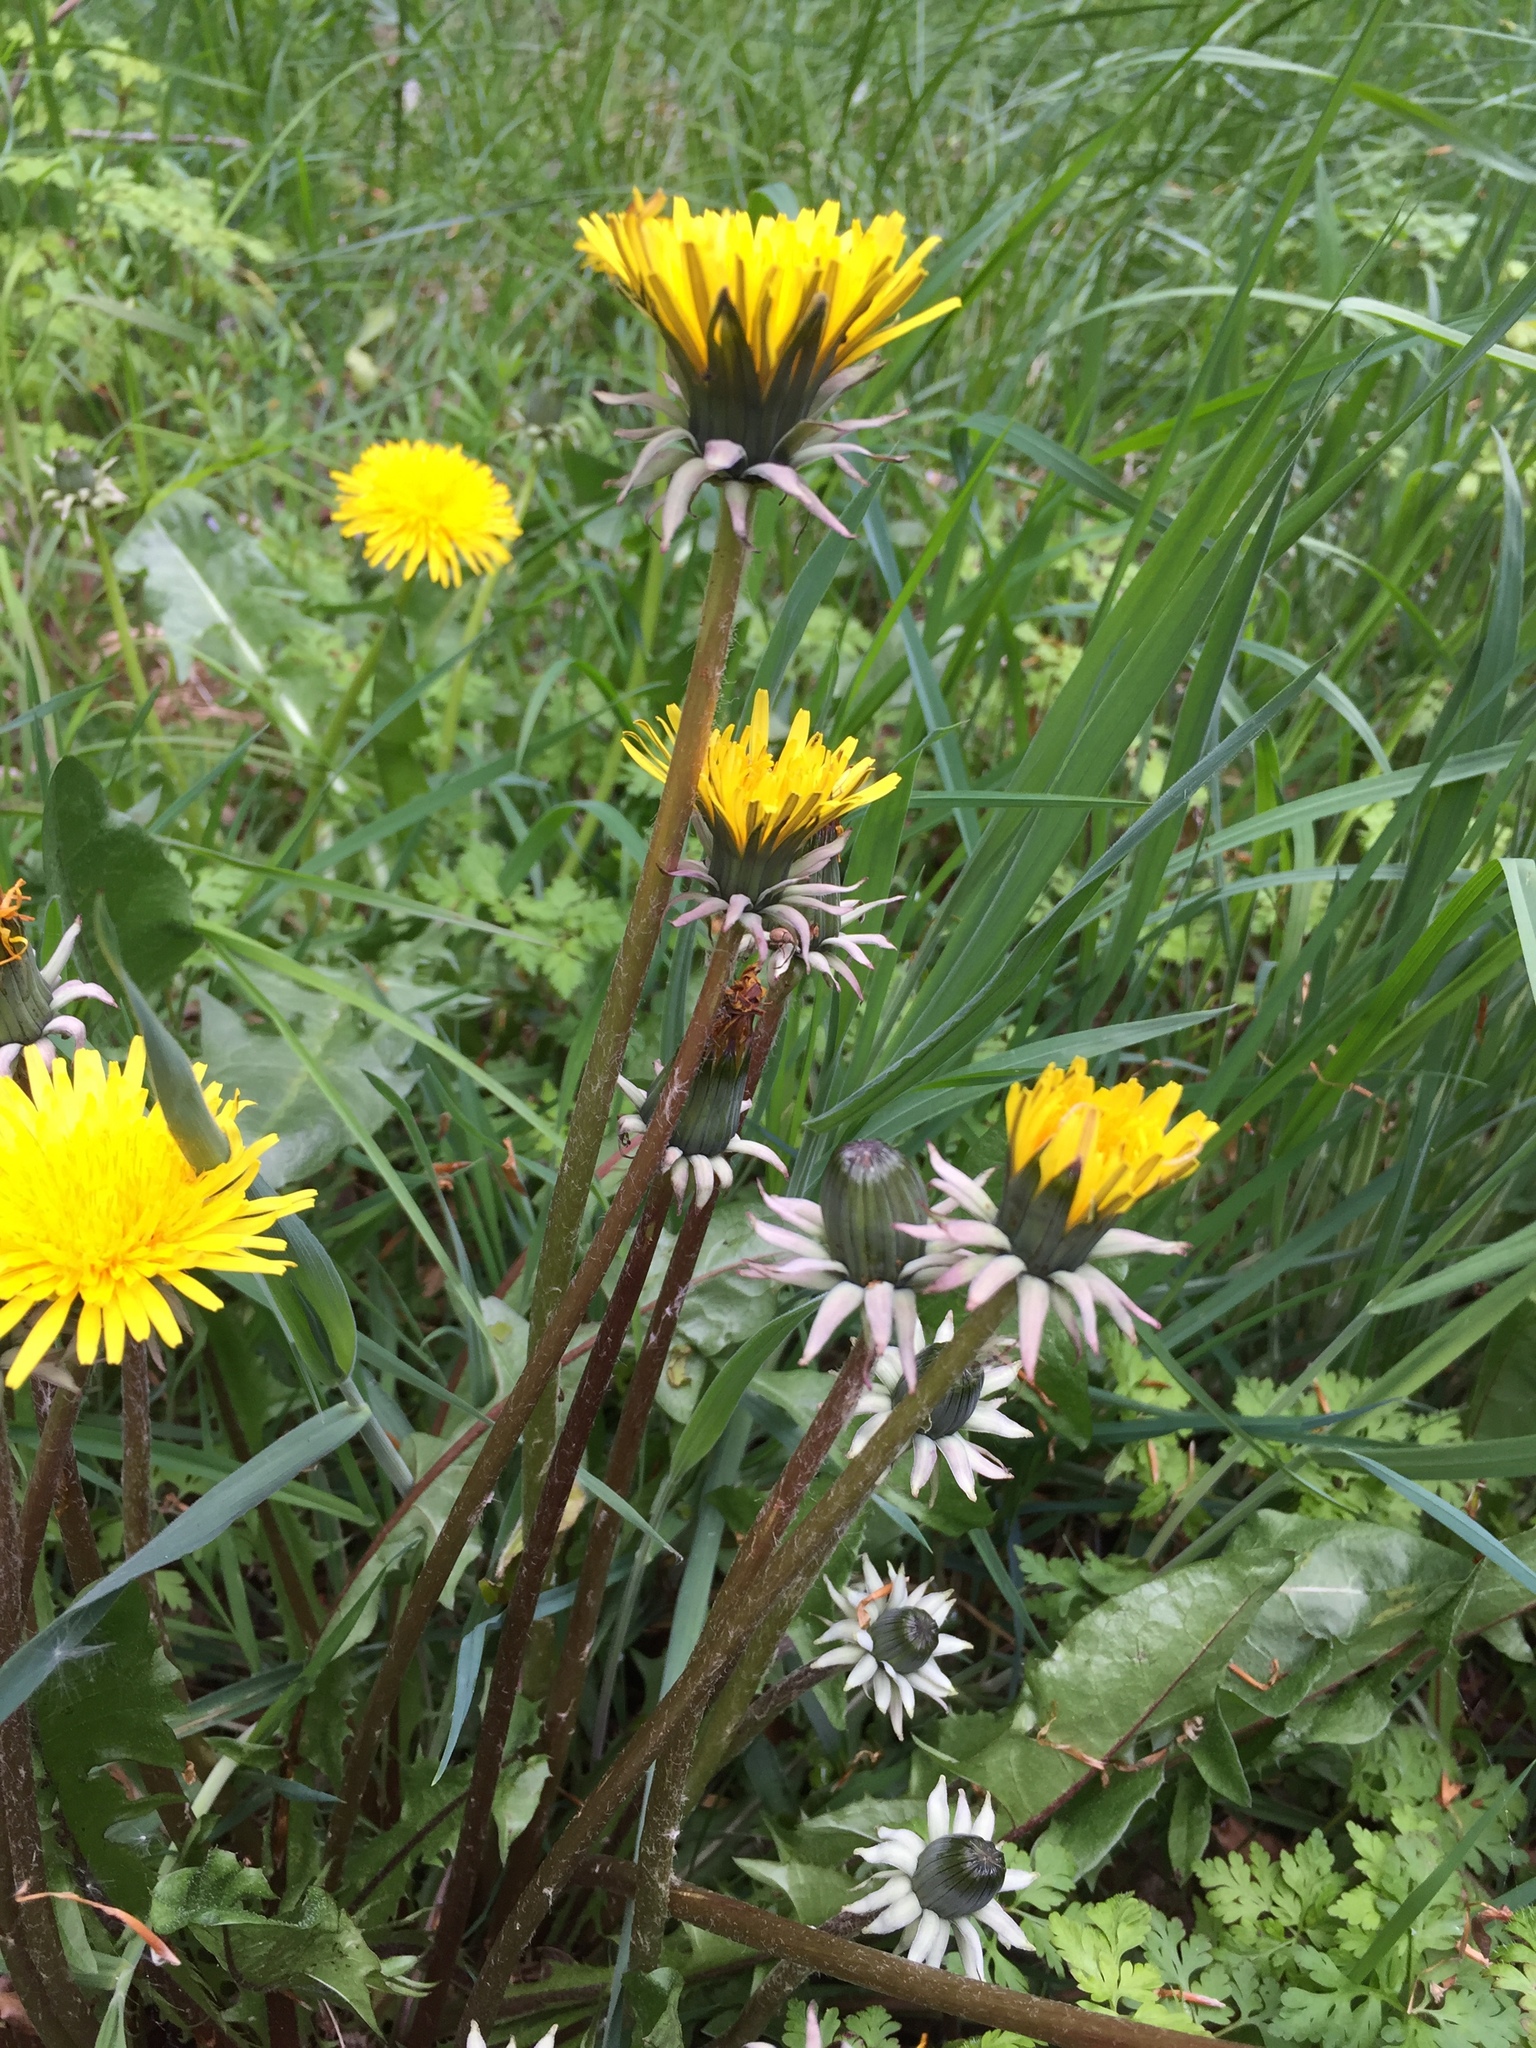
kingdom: Plantae
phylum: Tracheophyta
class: Magnoliopsida
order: Asterales
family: Asteraceae
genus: Taraxacum
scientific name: Taraxacum boekmanii
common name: Bökman's dandelion
